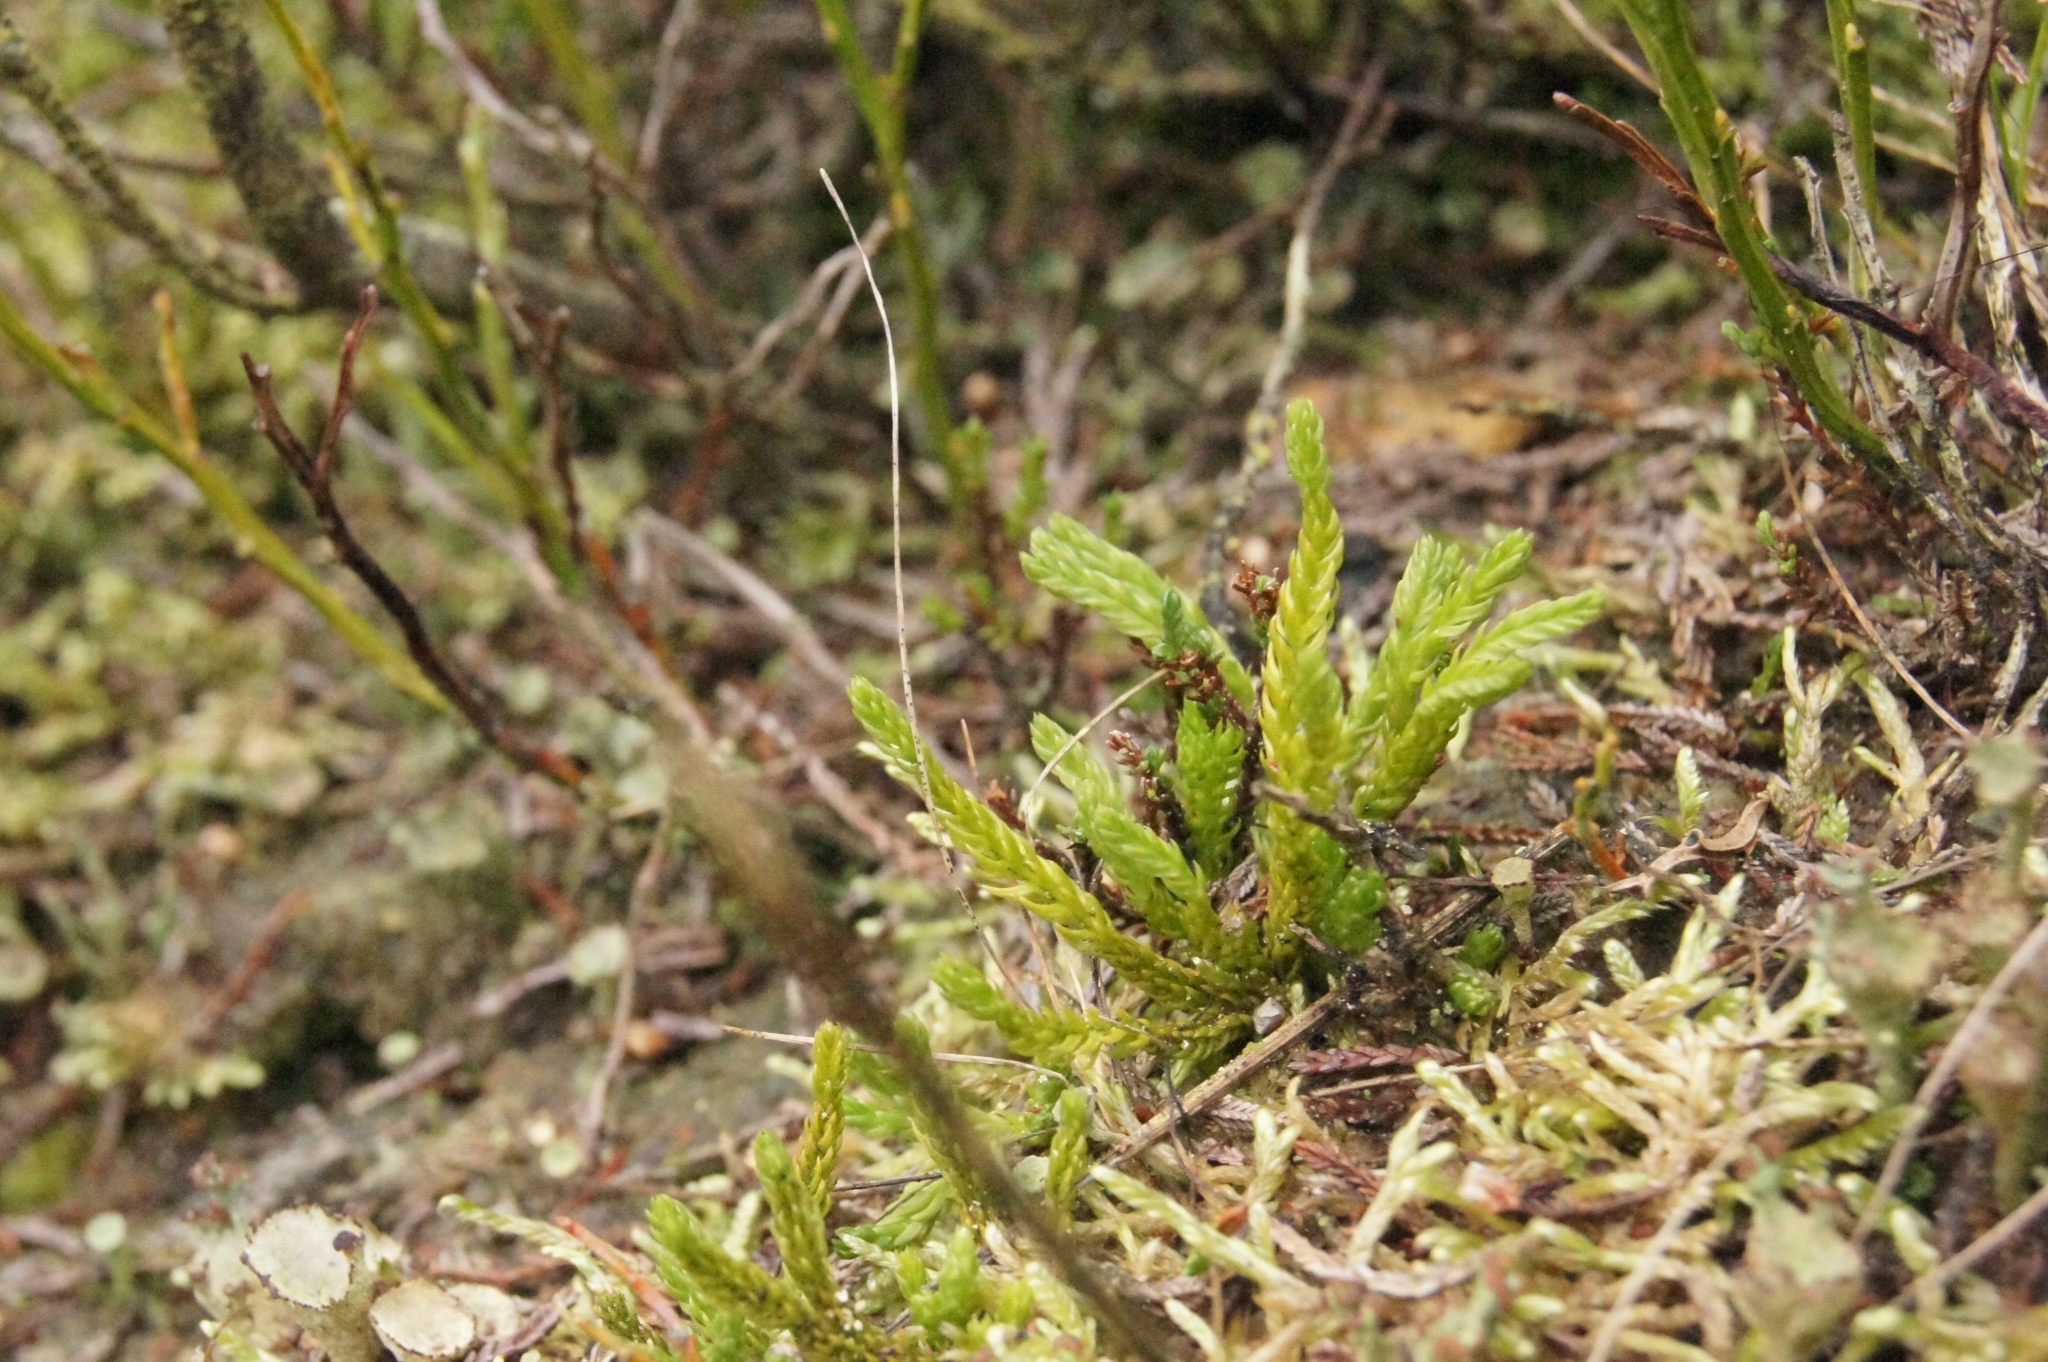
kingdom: Plantae
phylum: Tracheophyta
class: Lycopodiopsida
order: Lycopodiales
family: Lycopodiaceae
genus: Diphasiastrum
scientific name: Diphasiastrum alpinum
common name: Alpine clubmoss
